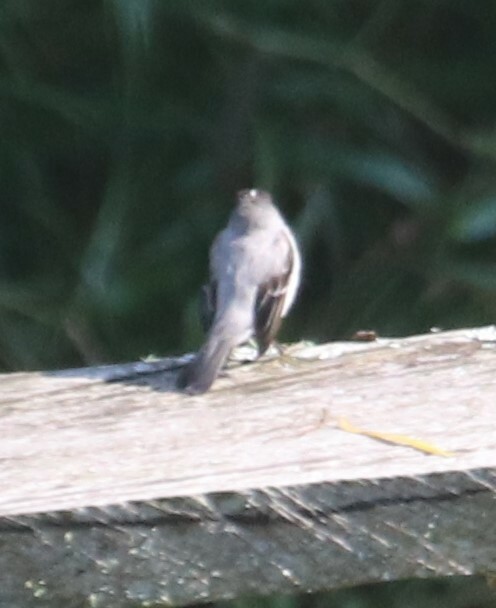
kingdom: Animalia
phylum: Chordata
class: Aves
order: Passeriformes
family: Tyrannidae
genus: Serpophaga
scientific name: Serpophaga cinerea
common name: Torrent tyrannulet
